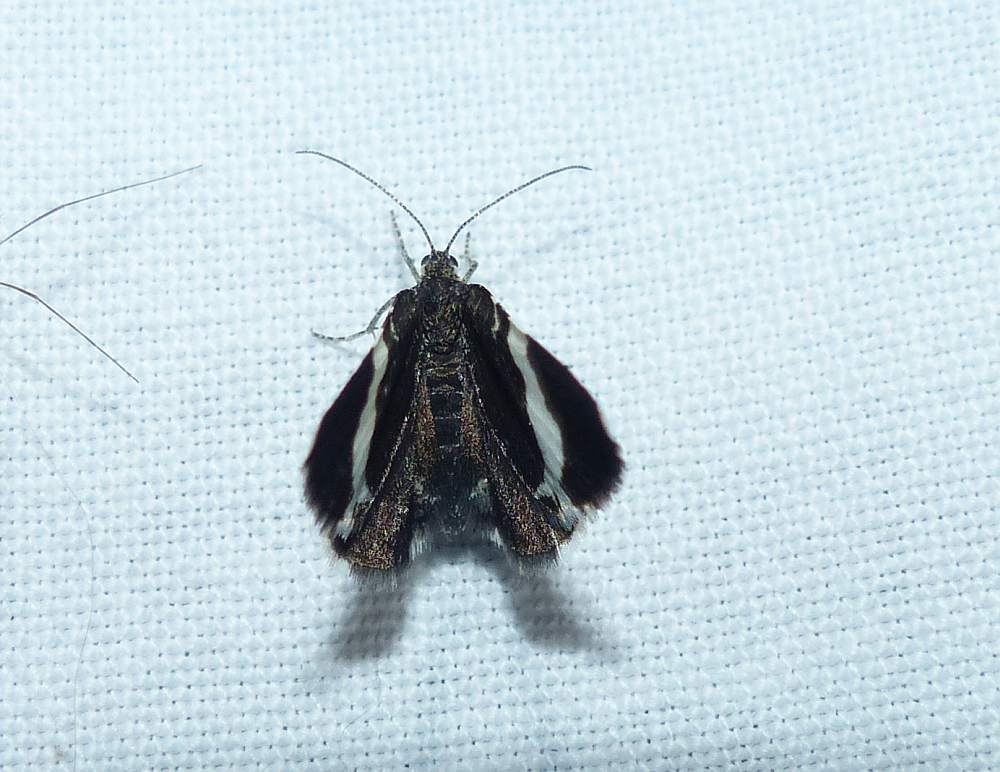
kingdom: Animalia
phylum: Arthropoda
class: Insecta
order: Lepidoptera
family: Geometridae
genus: Trichodezia
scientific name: Trichodezia albovittata
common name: White striped black
